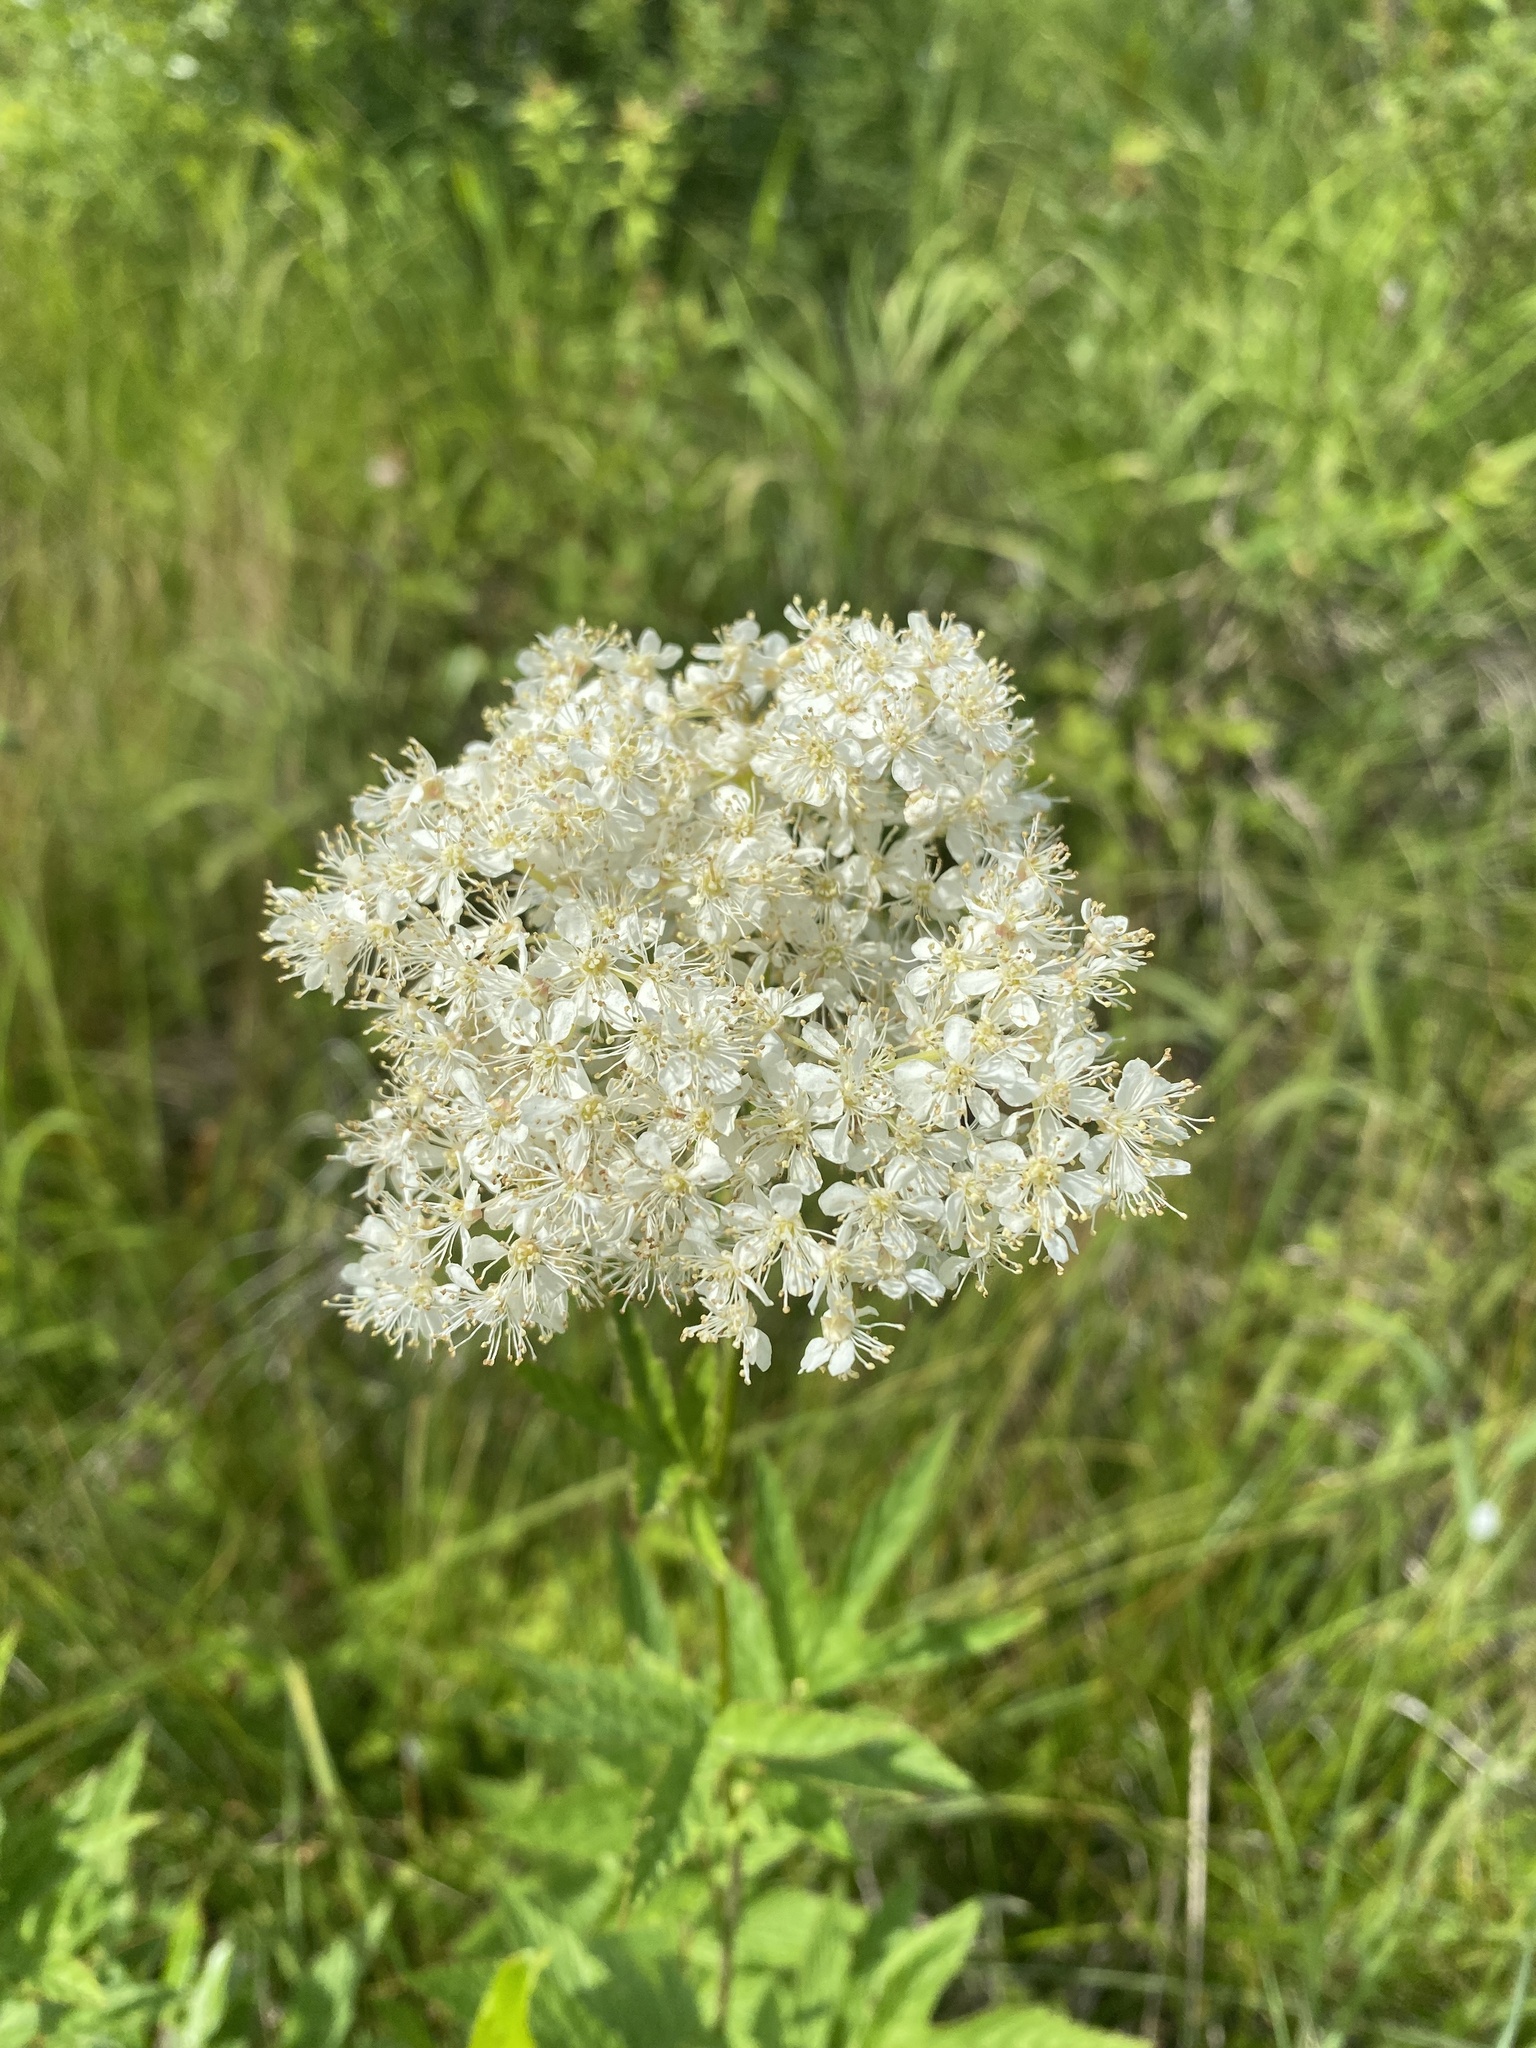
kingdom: Plantae
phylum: Tracheophyta
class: Magnoliopsida
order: Rosales
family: Rosaceae
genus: Filipendula
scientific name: Filipendula ulmaria
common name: Meadowsweet
